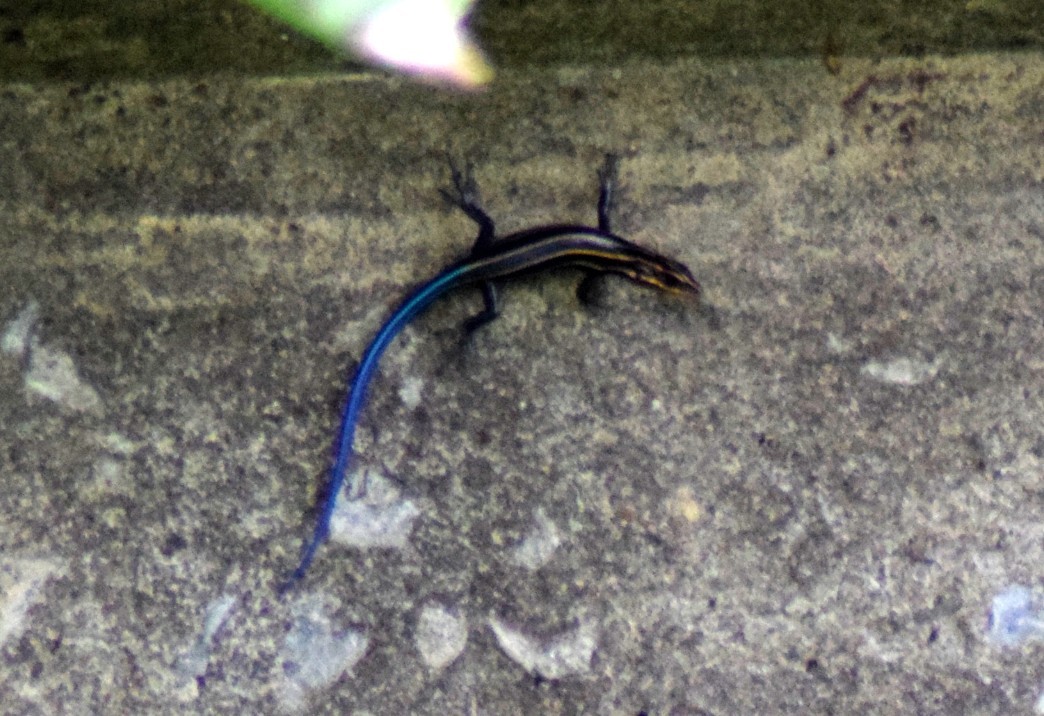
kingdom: Animalia
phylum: Chordata
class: Squamata
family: Scincidae
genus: Plestiodon
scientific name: Plestiodon fasciatus
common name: Five-lined skink
